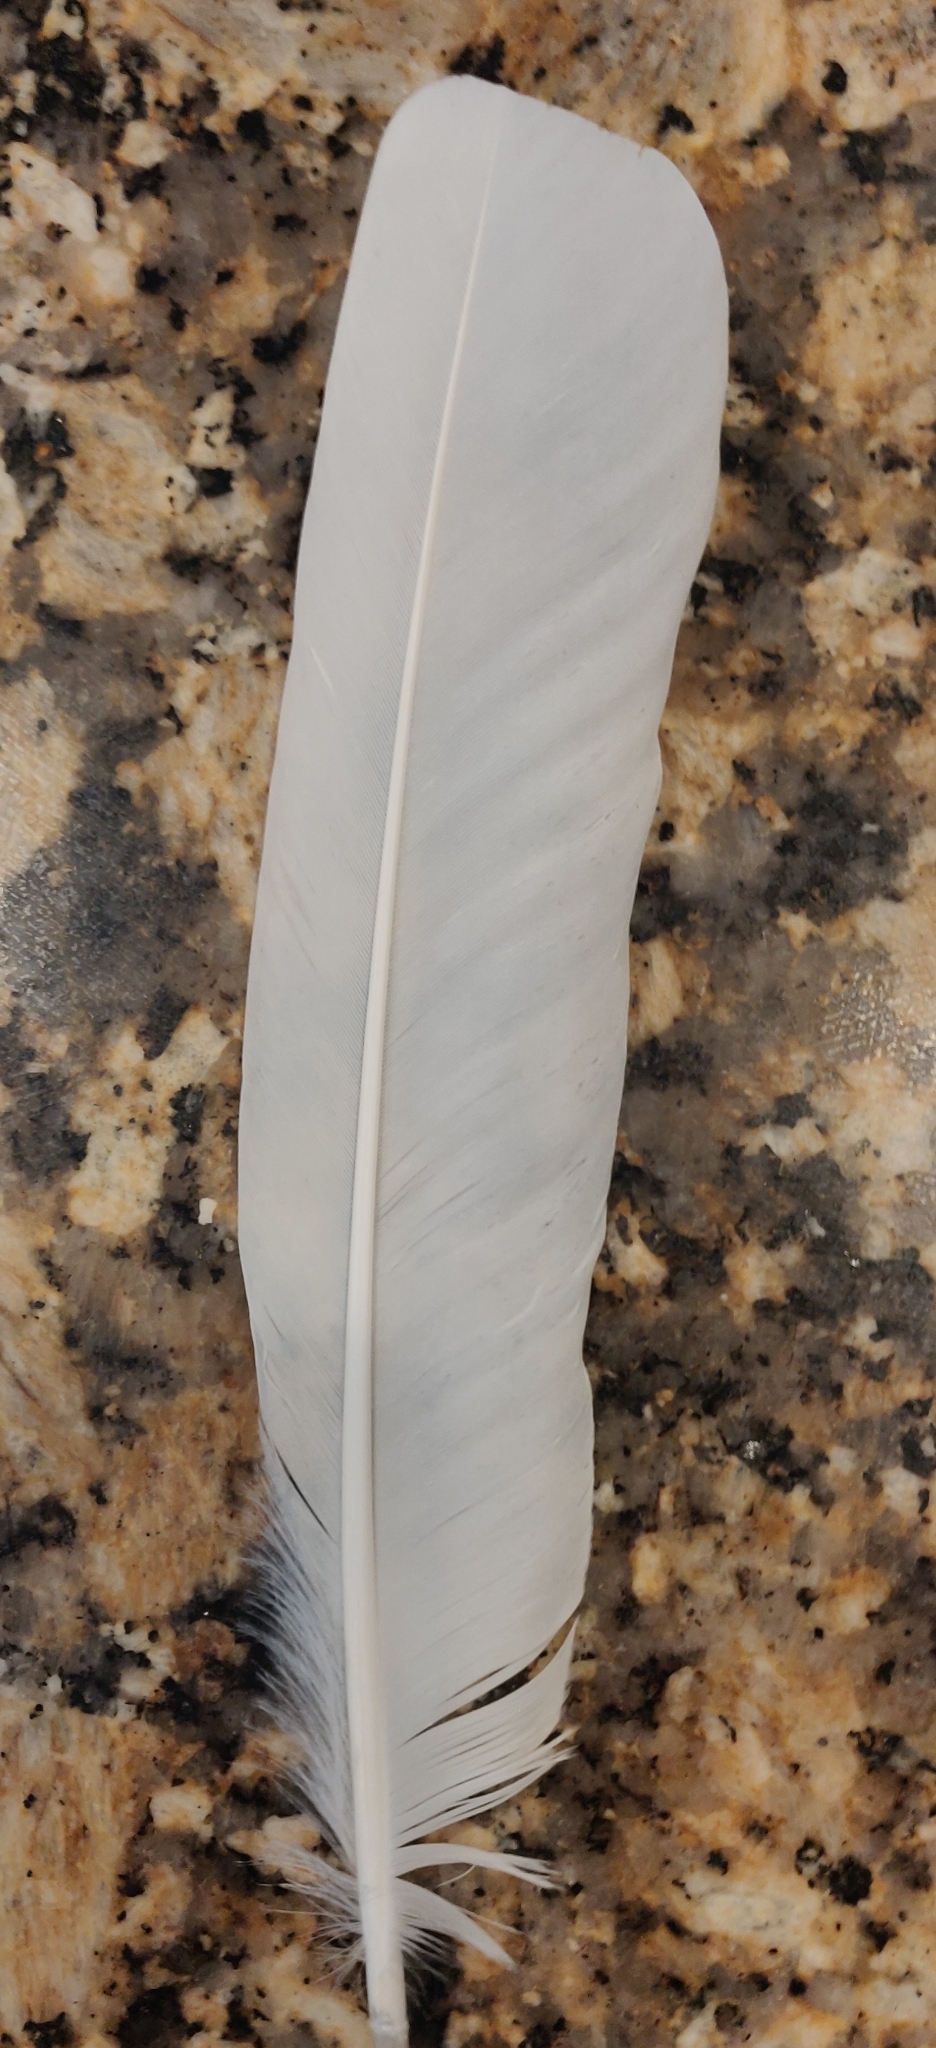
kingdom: Animalia
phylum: Chordata
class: Aves
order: Pelecaniformes
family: Ardeidae
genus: Ardea
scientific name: Ardea alba
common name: Great egret
